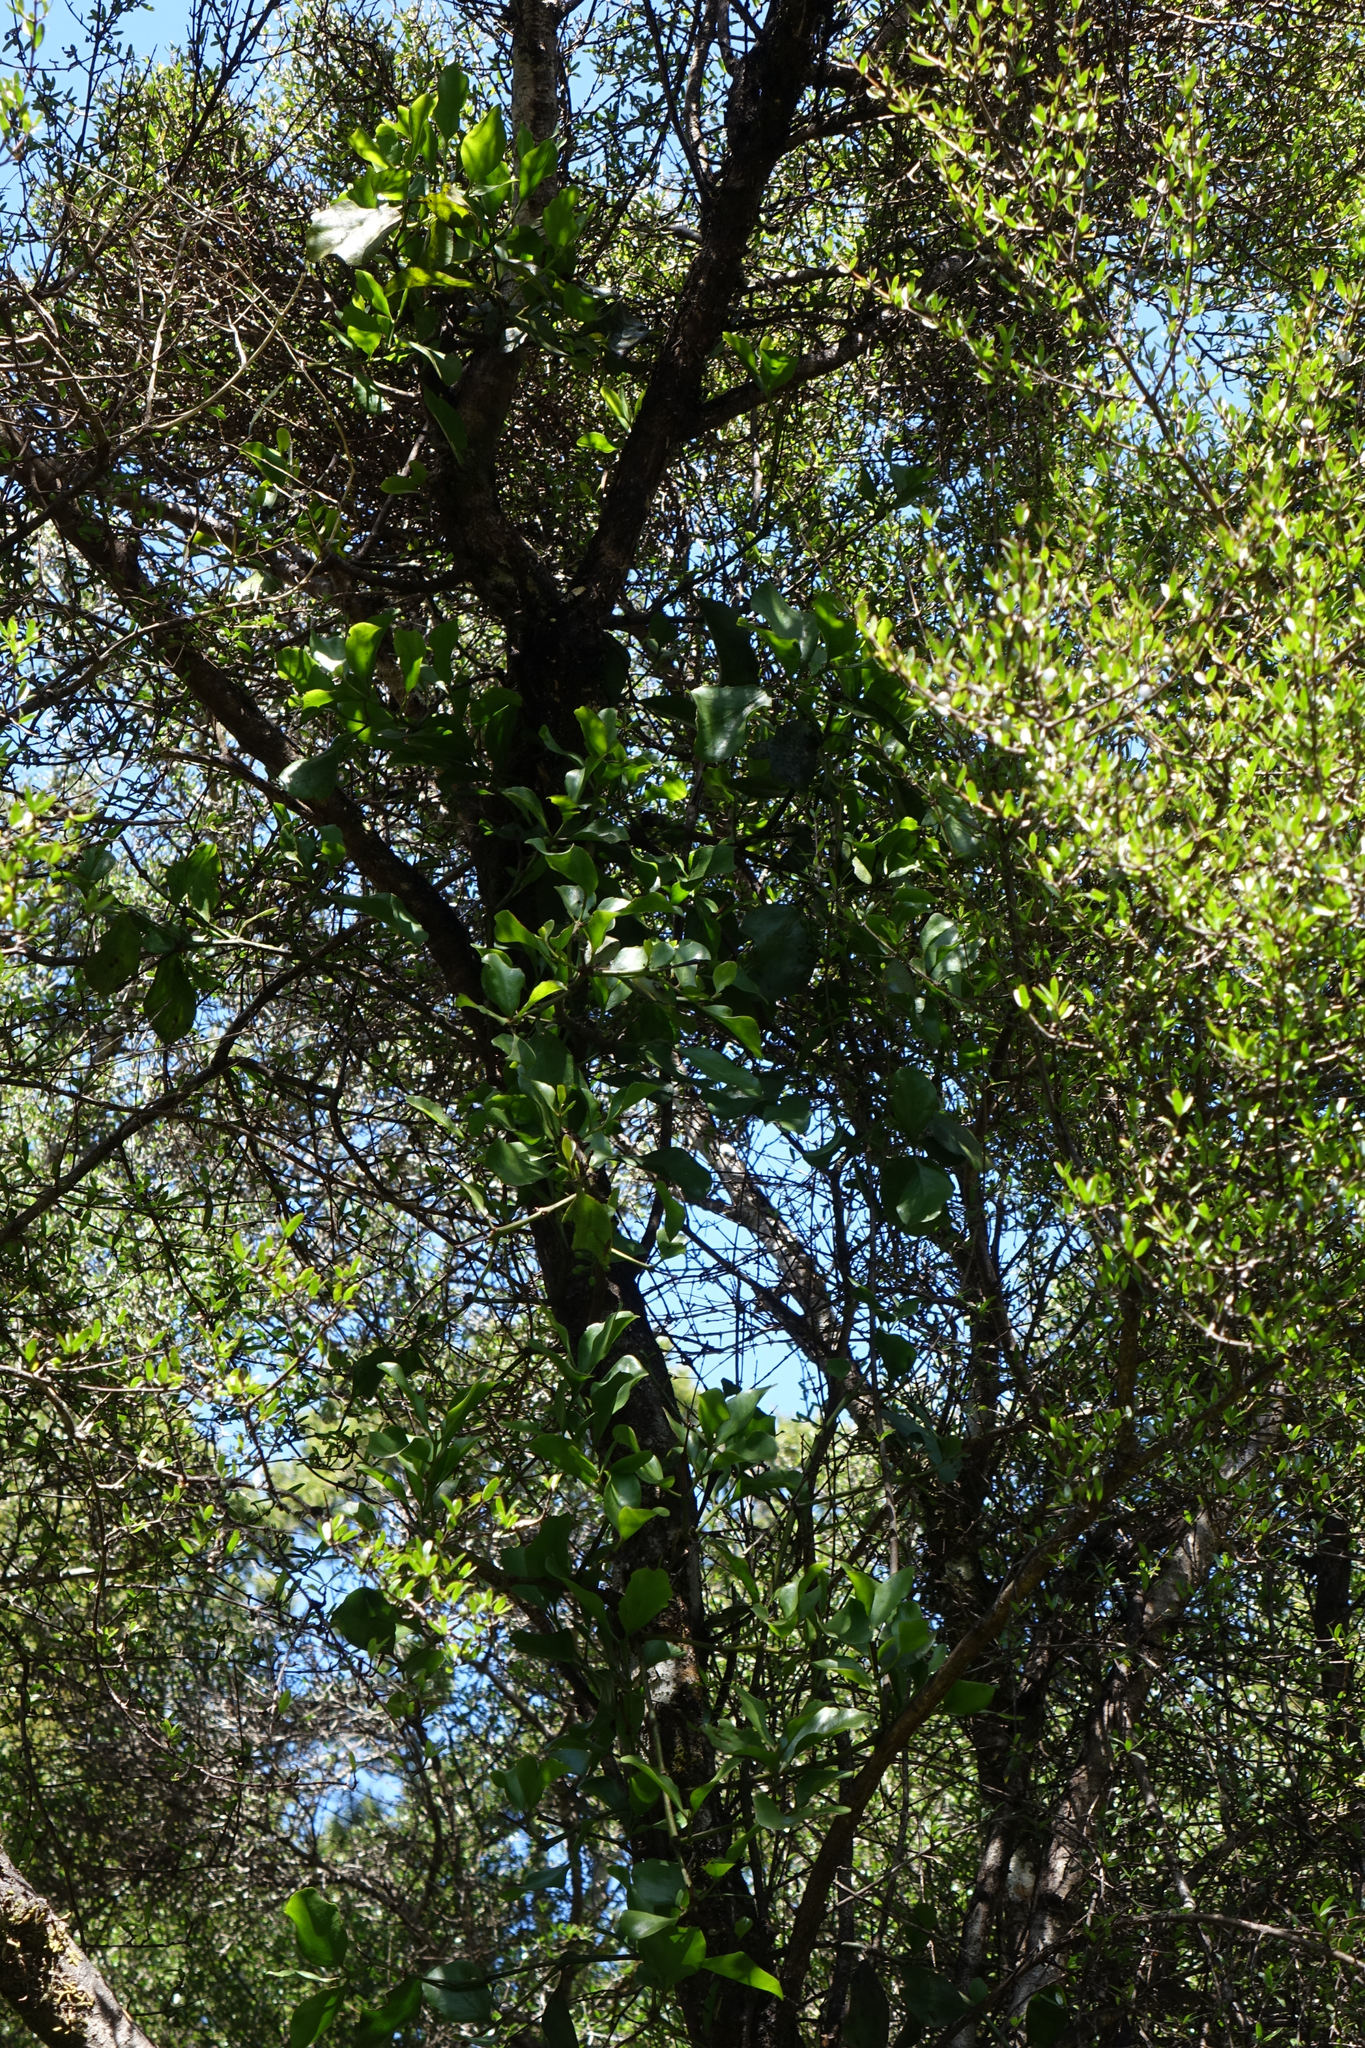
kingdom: Plantae
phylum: Tracheophyta
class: Magnoliopsida
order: Santalales
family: Loranthaceae
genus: Ileostylus
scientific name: Ileostylus micranthus
